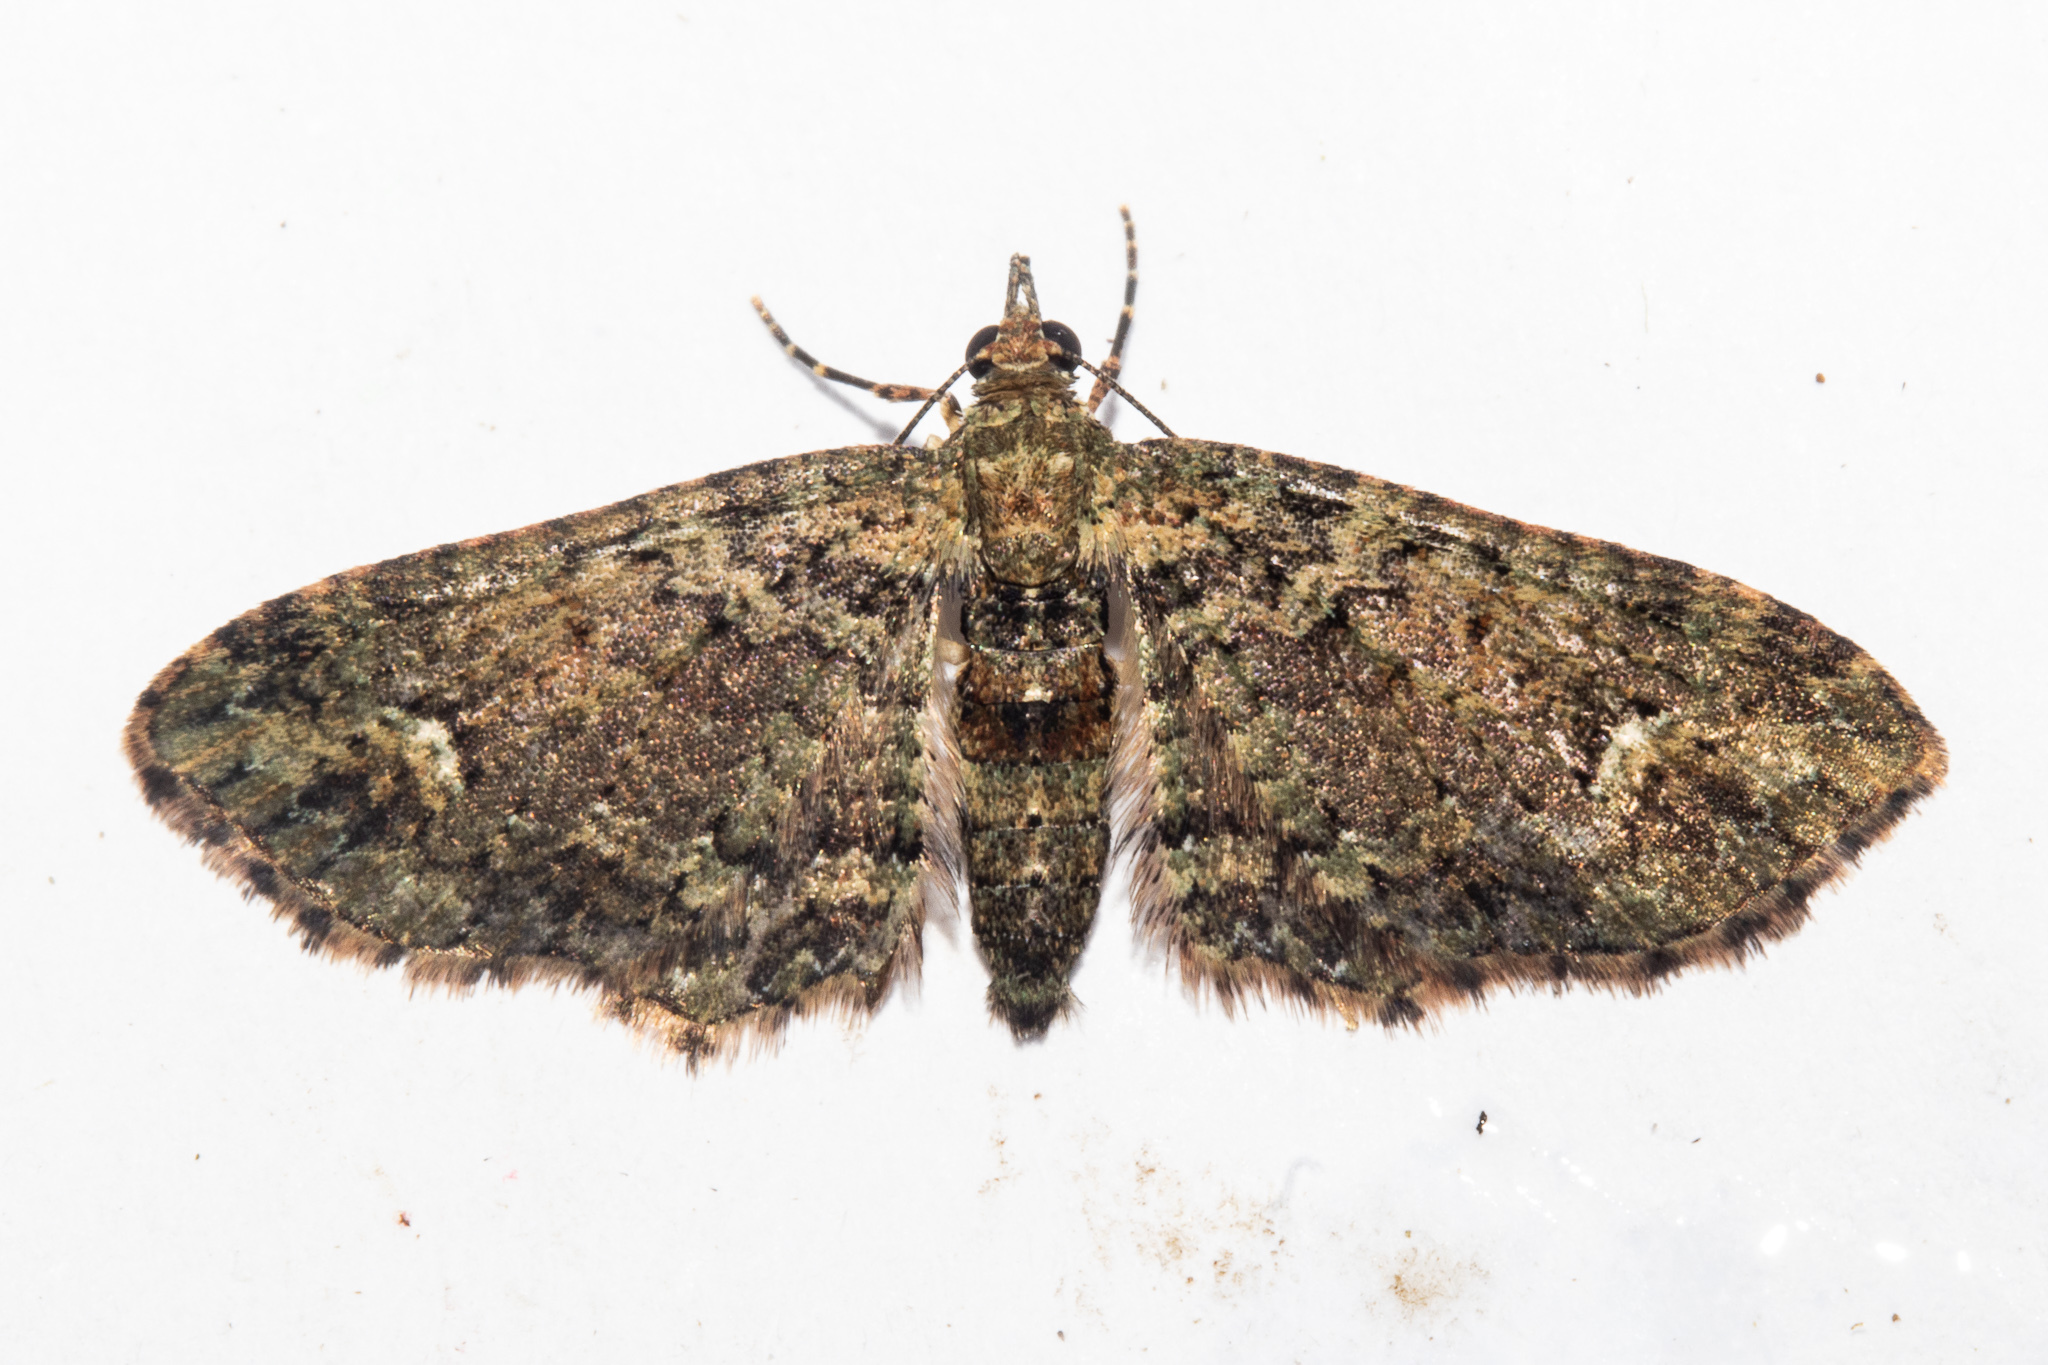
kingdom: Animalia
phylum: Arthropoda
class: Insecta
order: Lepidoptera
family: Geometridae
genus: Pasiphilodes
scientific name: Pasiphilodes testulata
